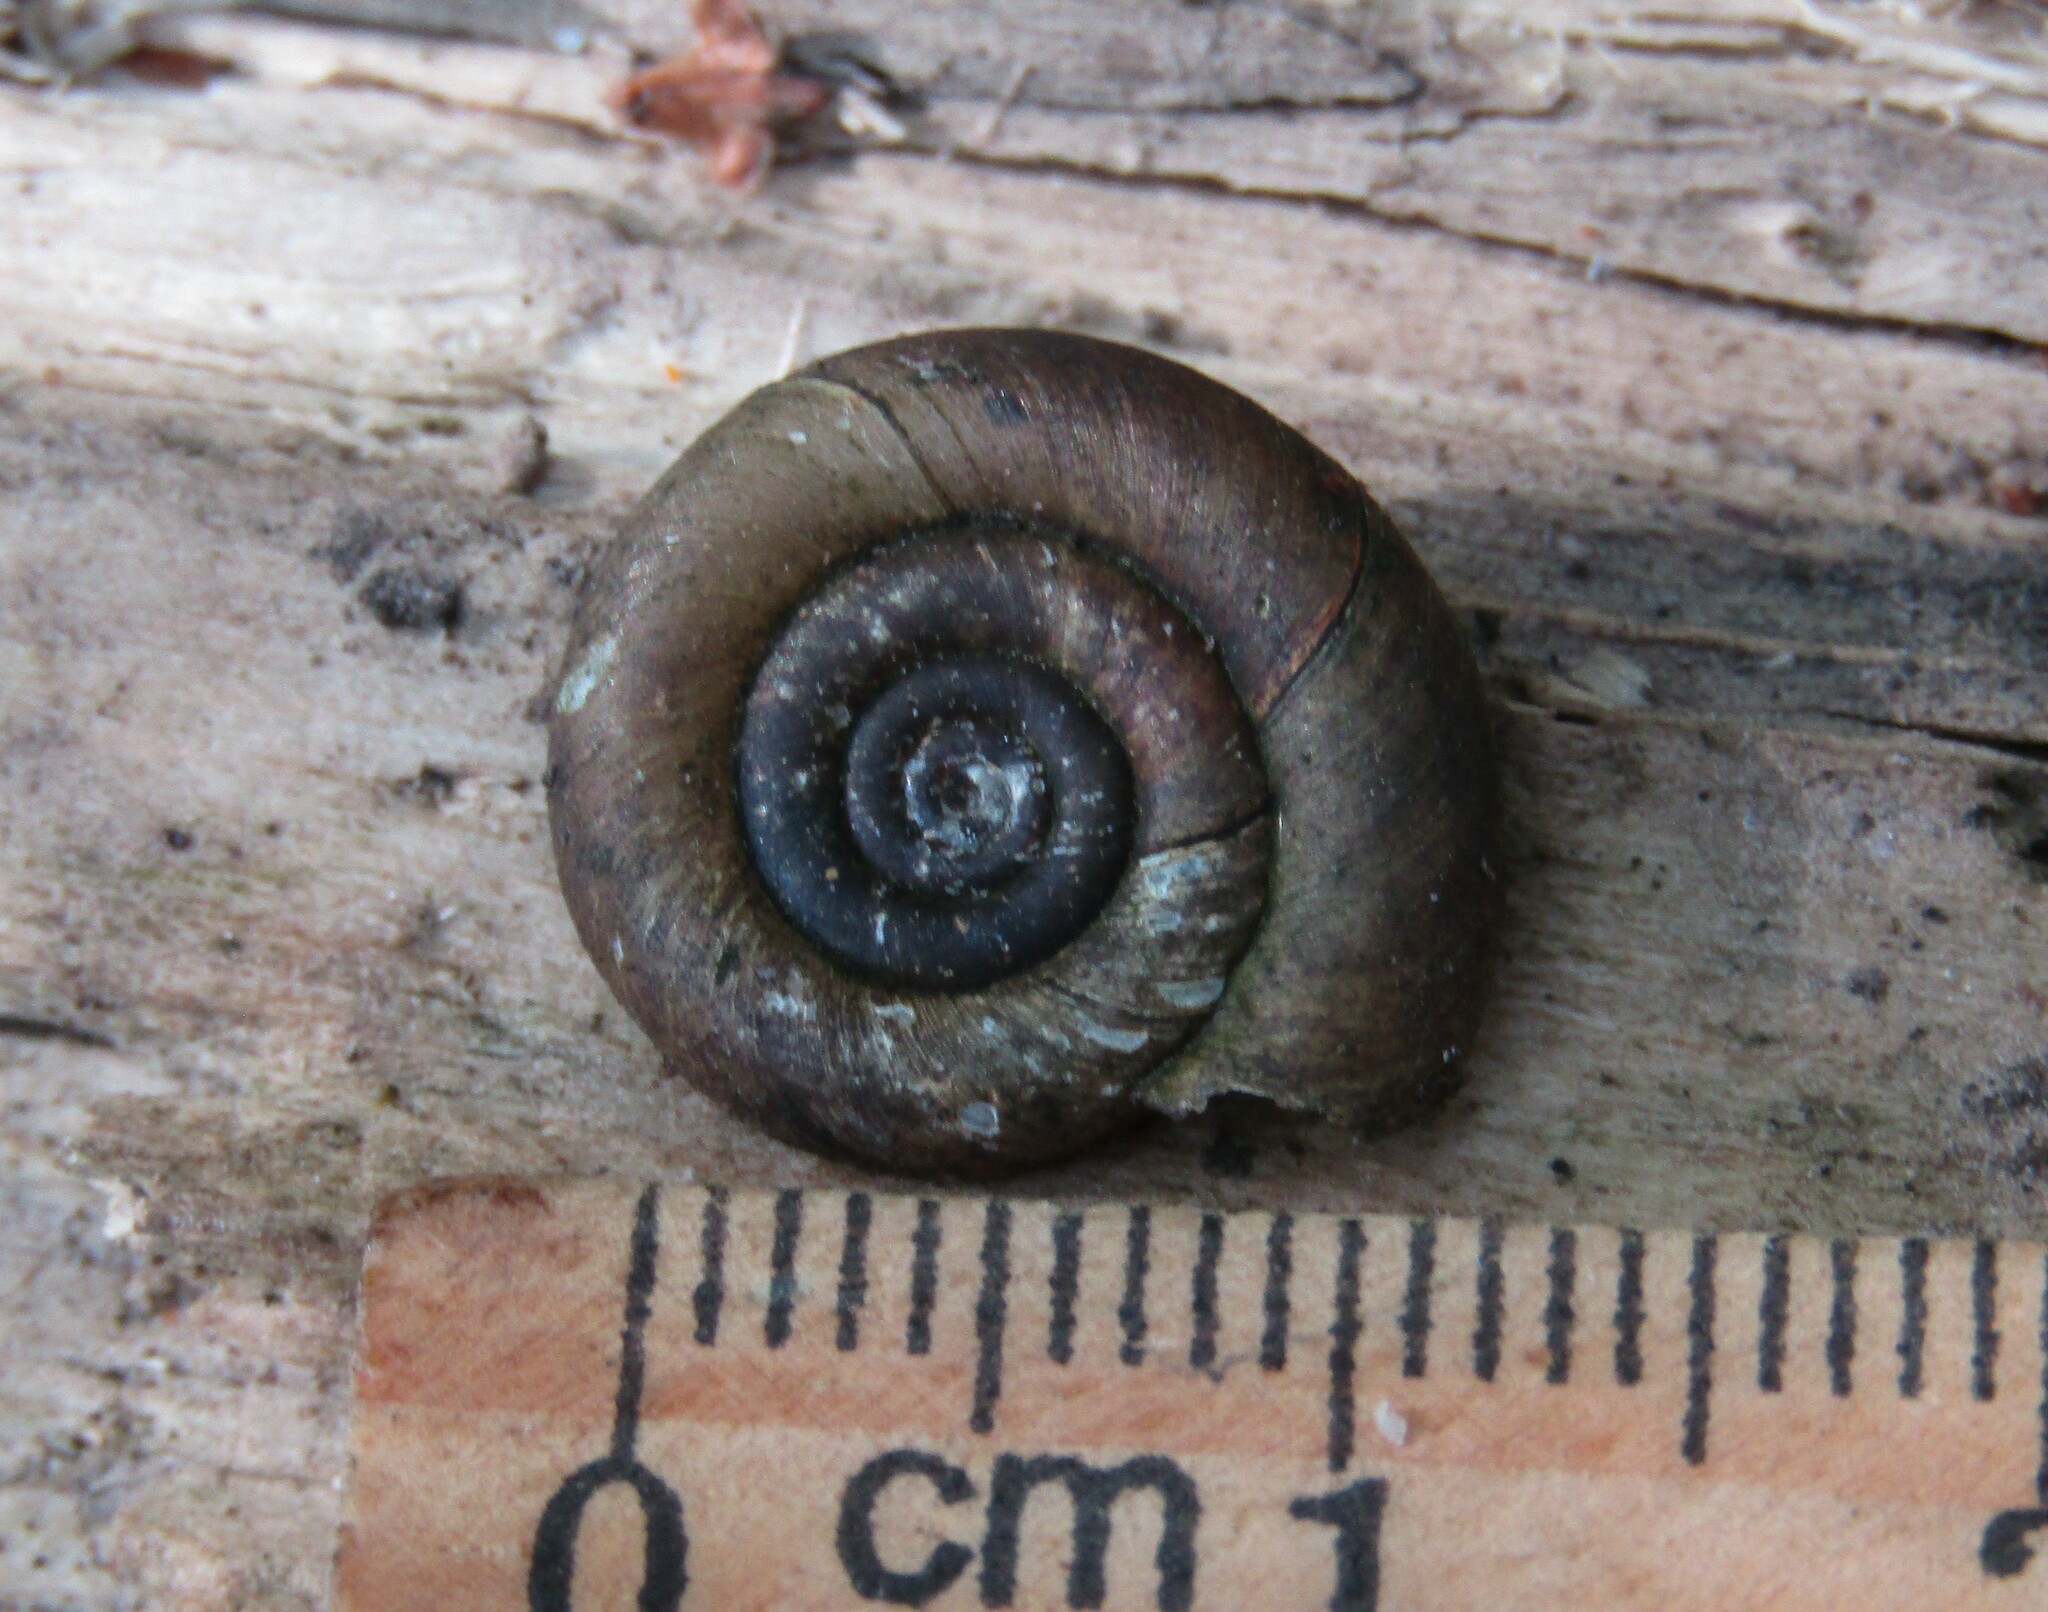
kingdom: Animalia
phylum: Mollusca
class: Gastropoda
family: Planorbidae
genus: Planorbis
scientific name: Planorbis planorbis
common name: Margined ramshorn
